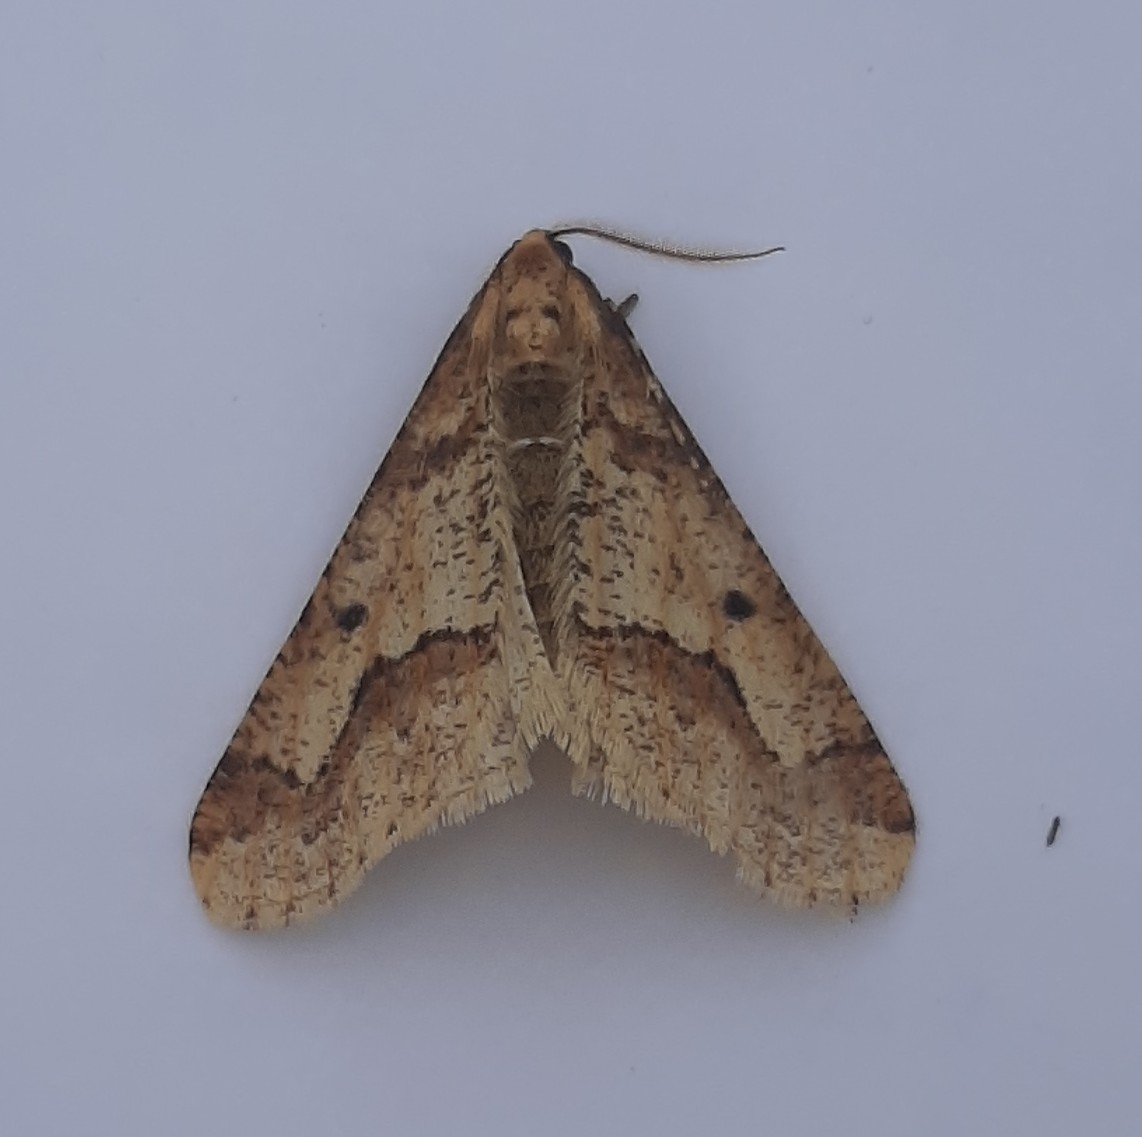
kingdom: Animalia
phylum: Arthropoda
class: Insecta
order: Lepidoptera
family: Geometridae
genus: Erannis
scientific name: Erannis defoliaria
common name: Mottled umber
